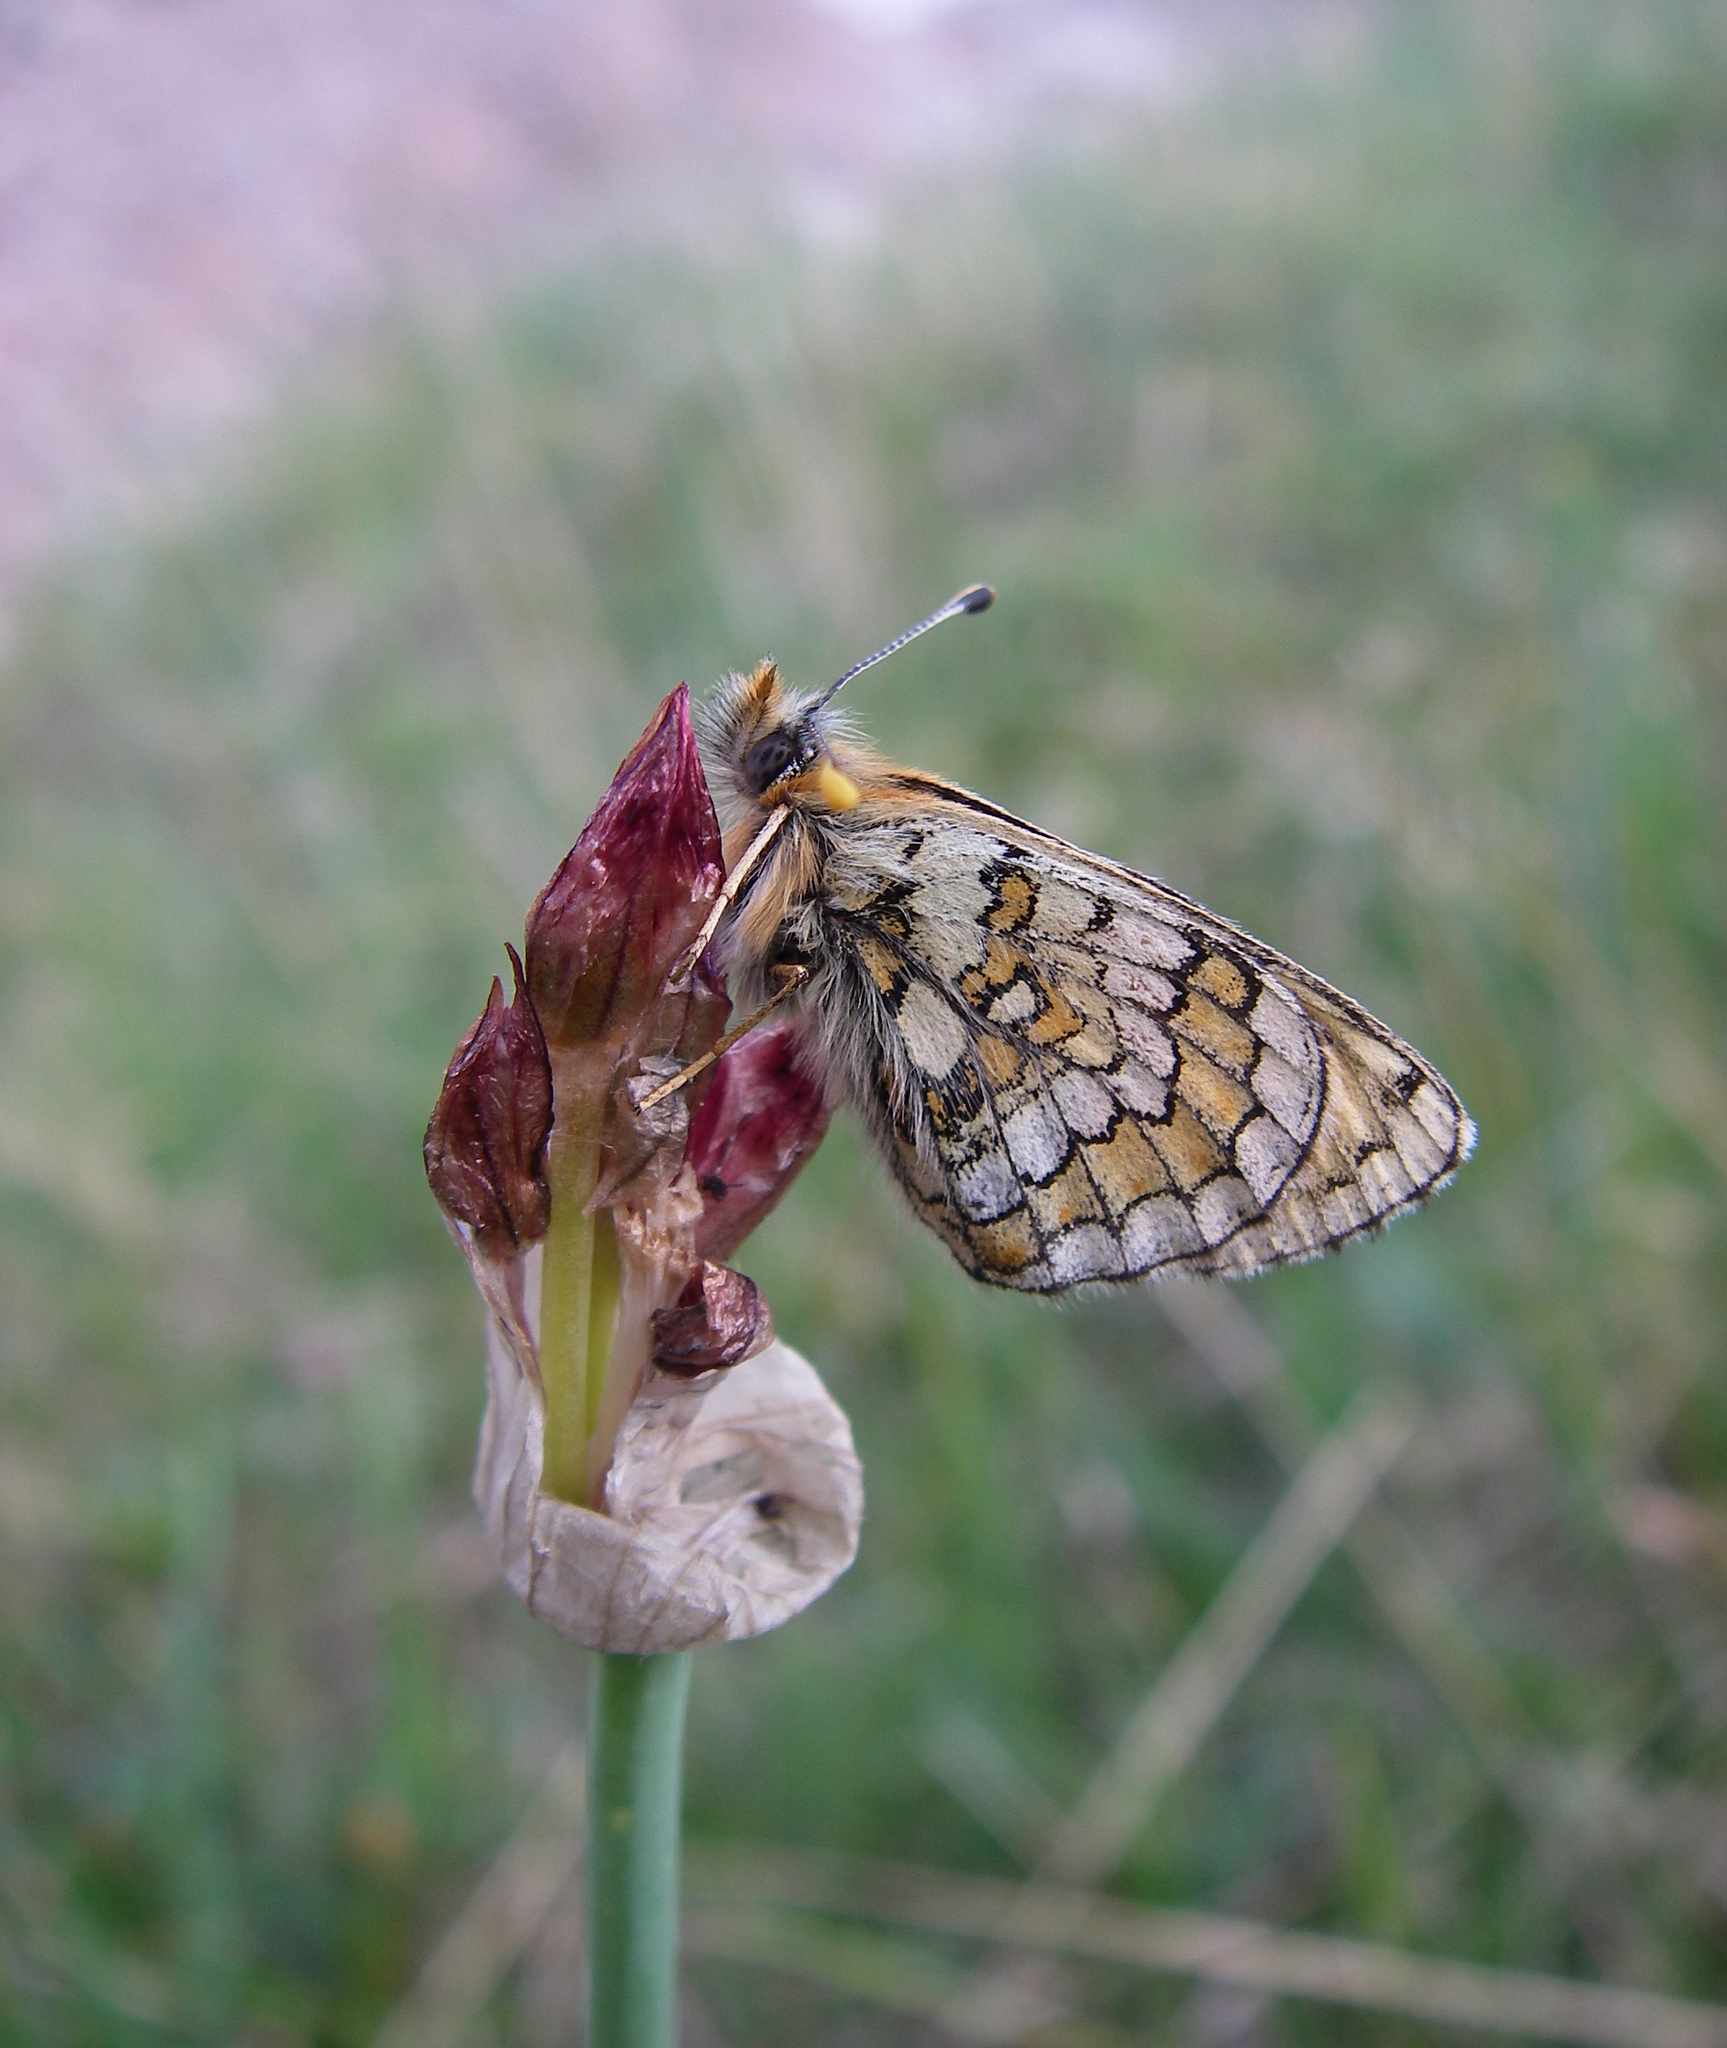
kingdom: Animalia
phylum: Arthropoda
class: Insecta
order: Lepidoptera
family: Nymphalidae
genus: Melitaea
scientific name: Melitaea turanica
